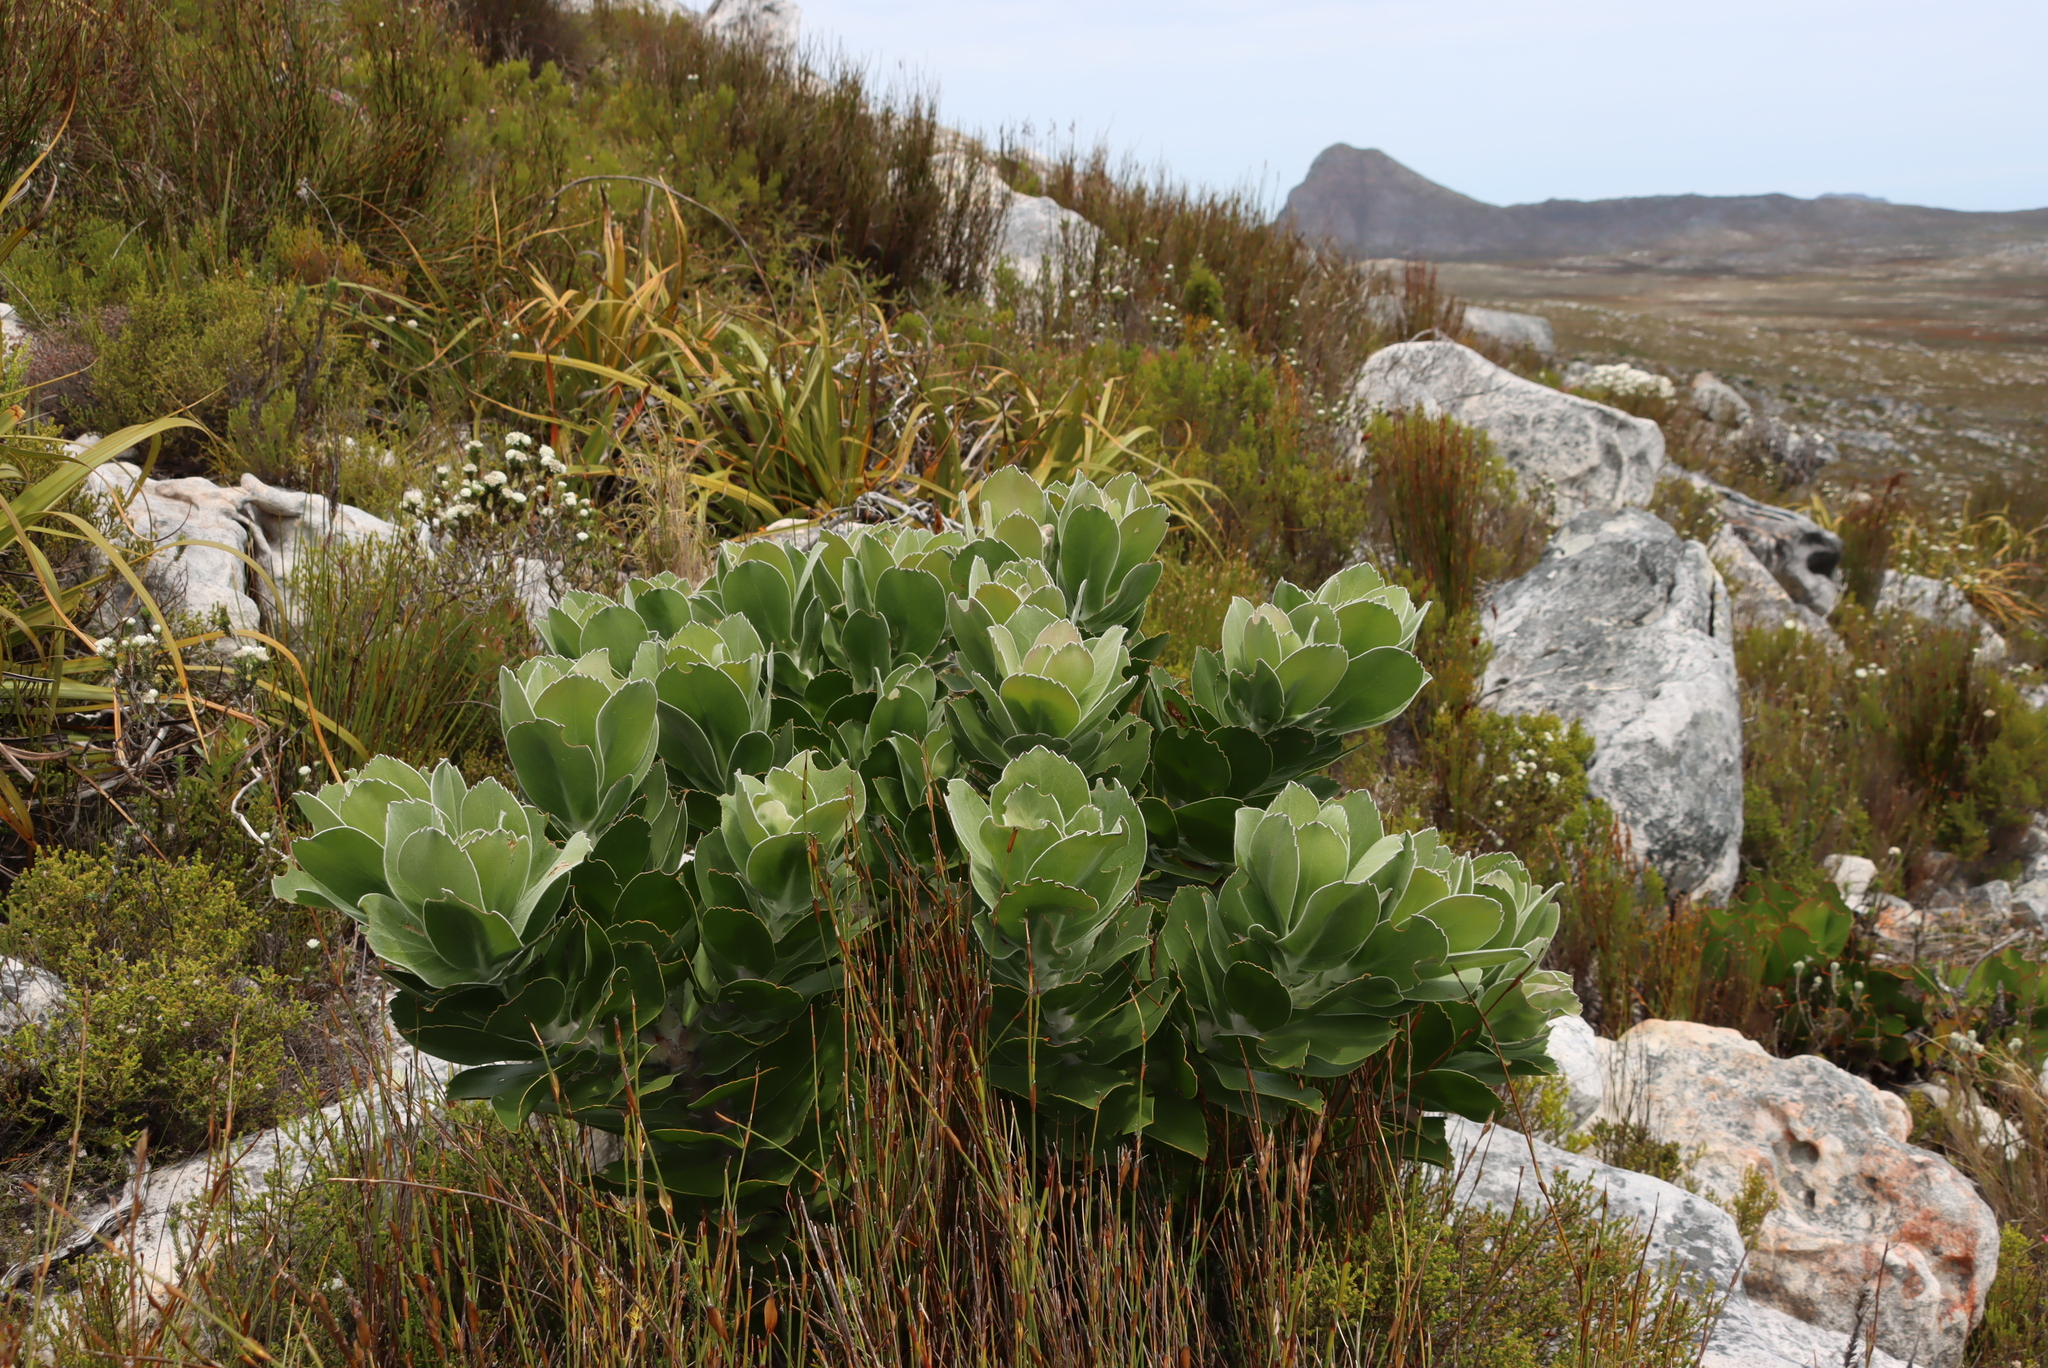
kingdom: Plantae
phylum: Tracheophyta
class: Magnoliopsida
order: Proteales
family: Proteaceae
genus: Leucospermum
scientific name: Leucospermum conocarpodendron
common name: Tree pincushion
